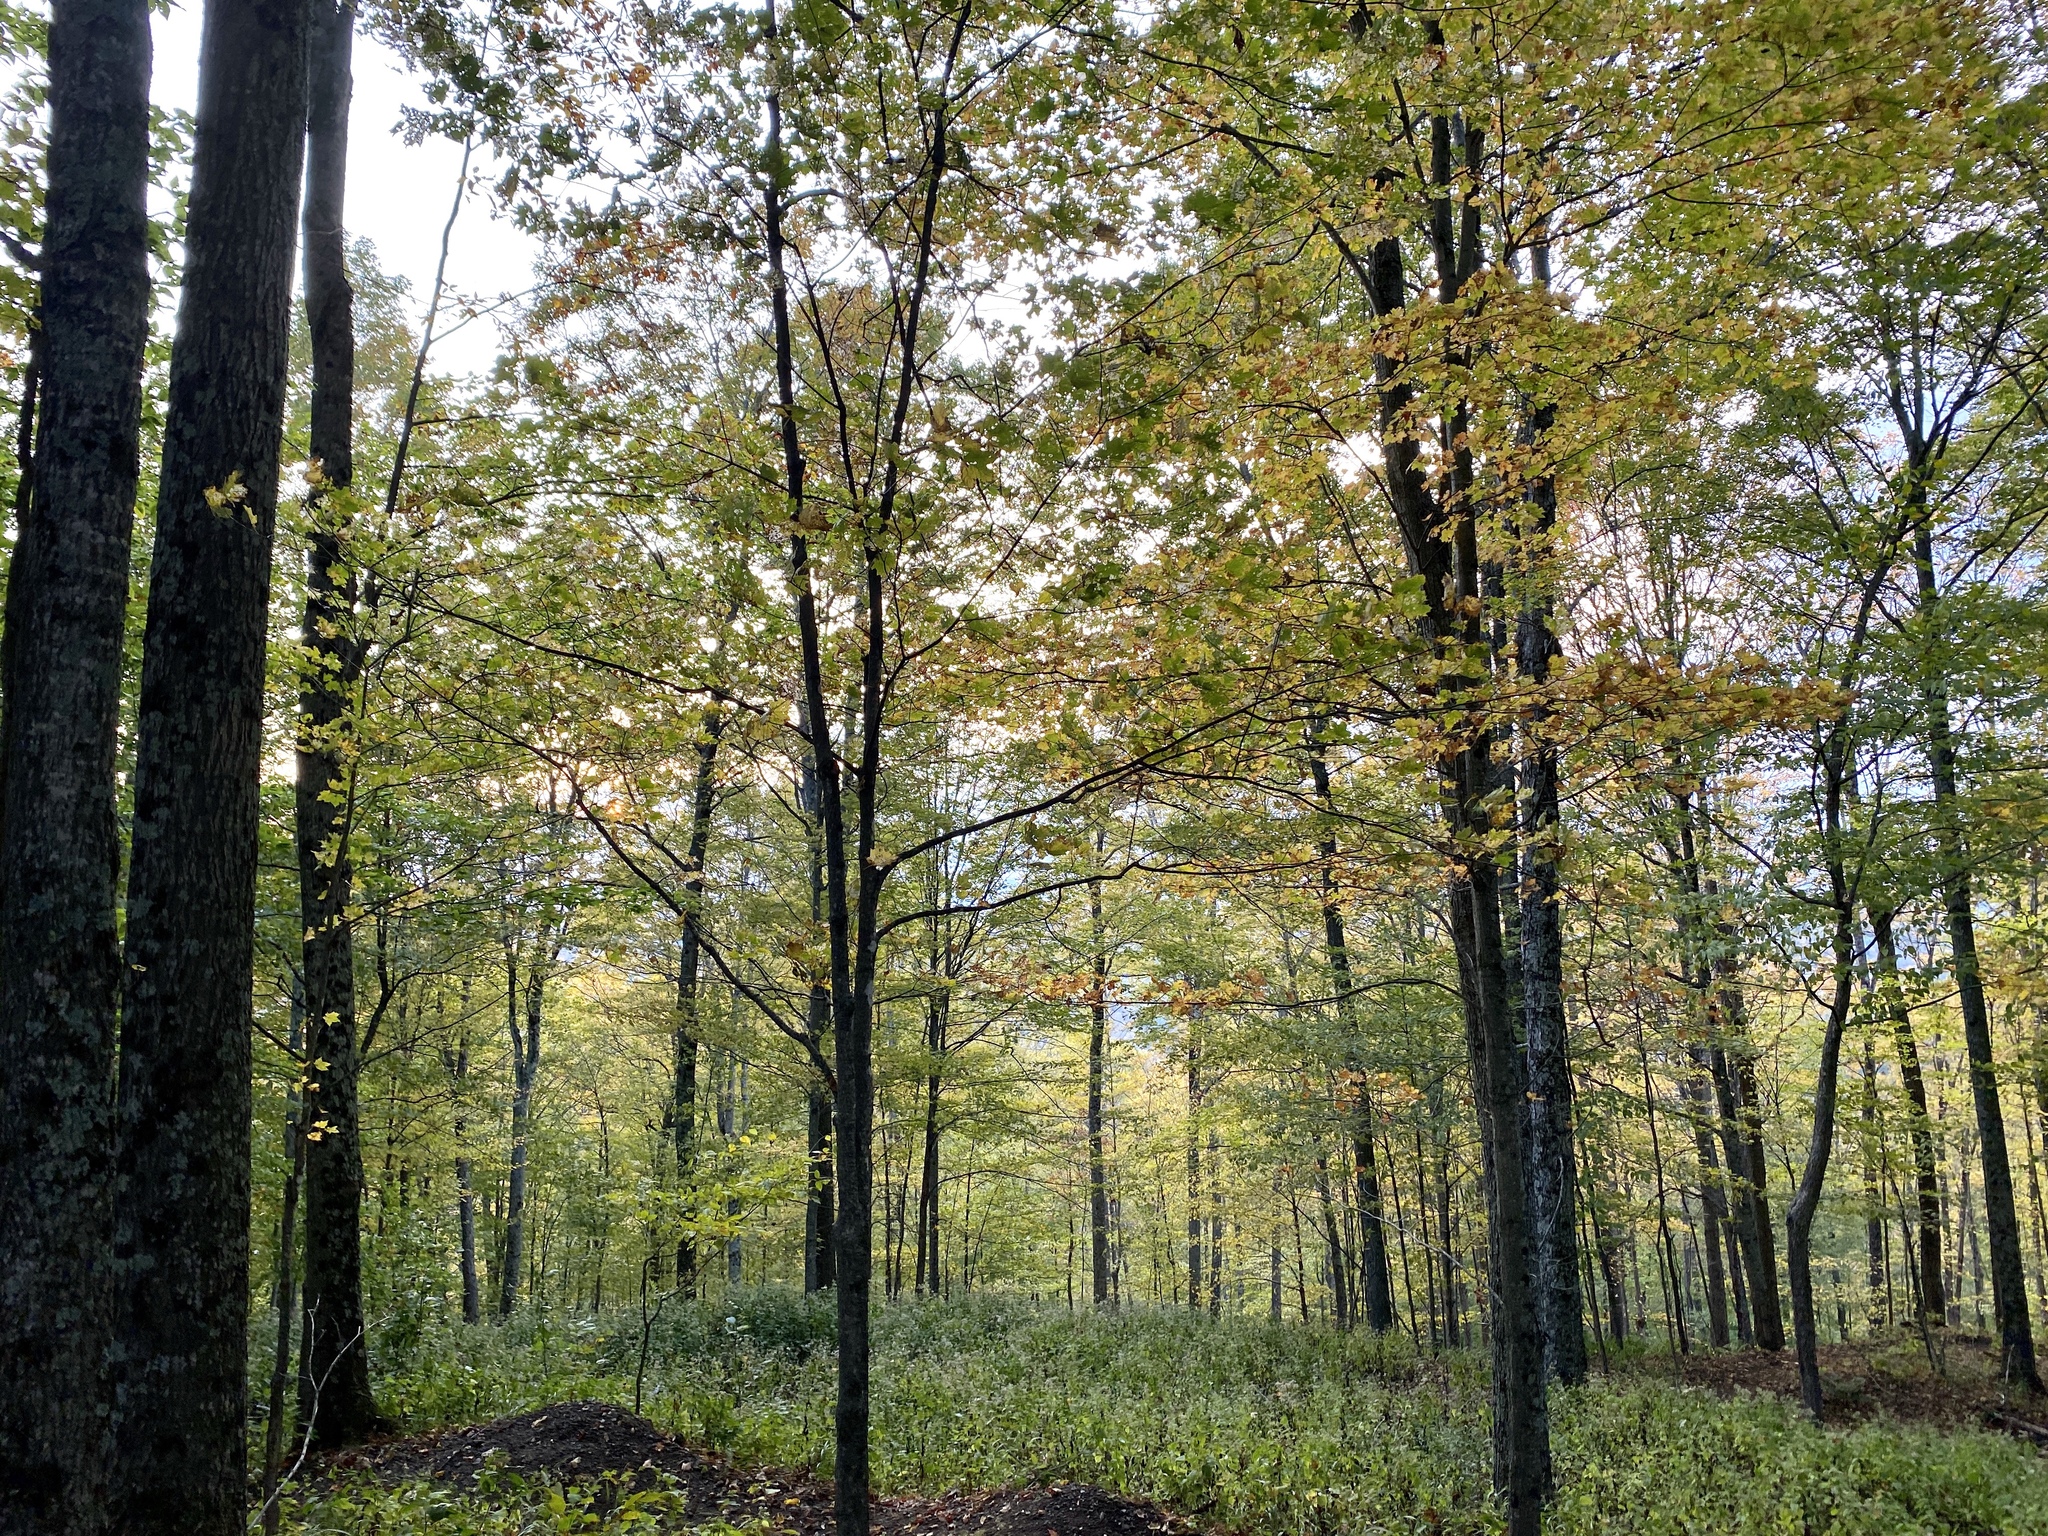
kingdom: Plantae
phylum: Tracheophyta
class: Magnoliopsida
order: Sapindales
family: Sapindaceae
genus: Acer
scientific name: Acer saccharum
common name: Sugar maple
